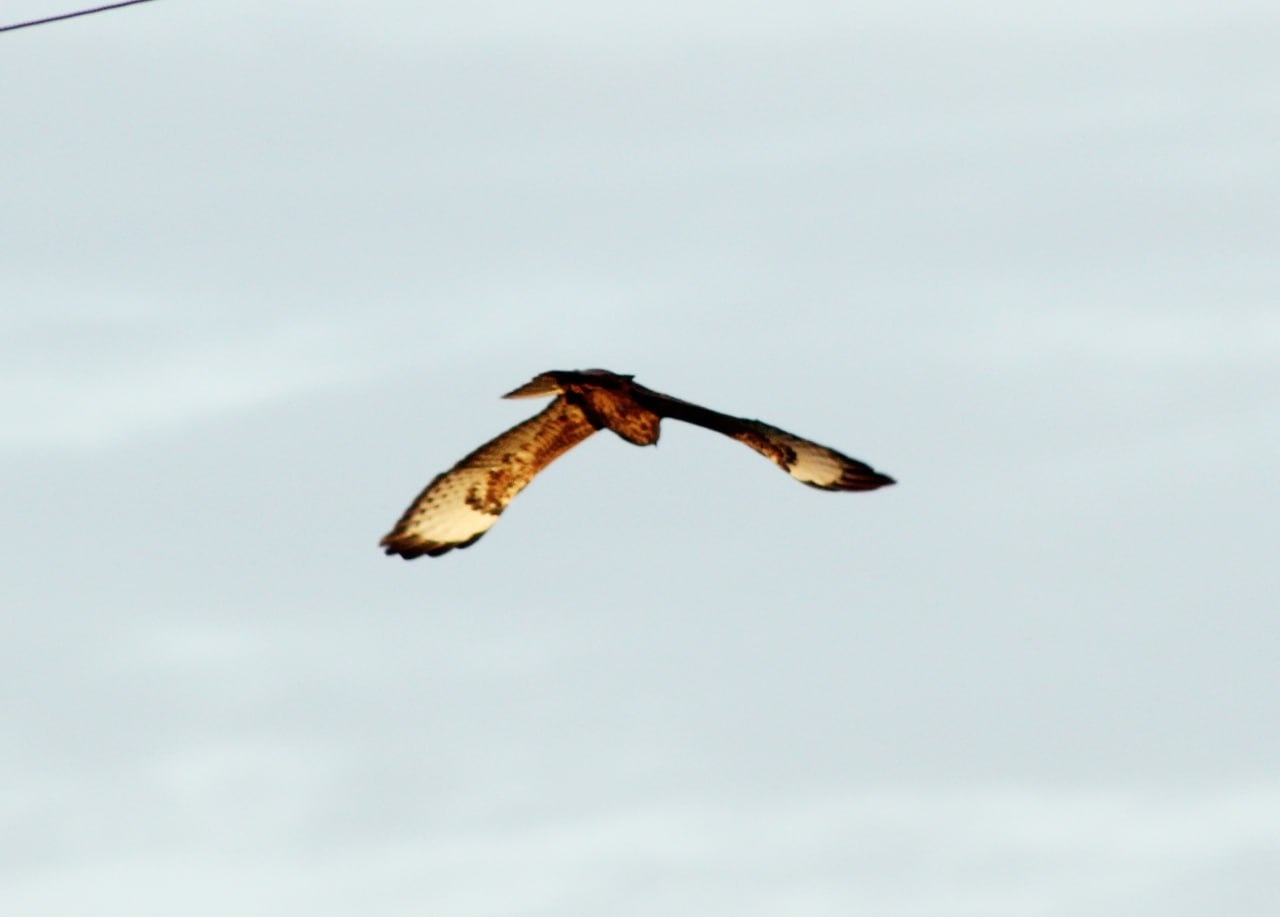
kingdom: Animalia
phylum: Chordata
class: Aves
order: Accipitriformes
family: Accipitridae
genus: Buteo
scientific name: Buteo buteo
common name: Common buzzard
